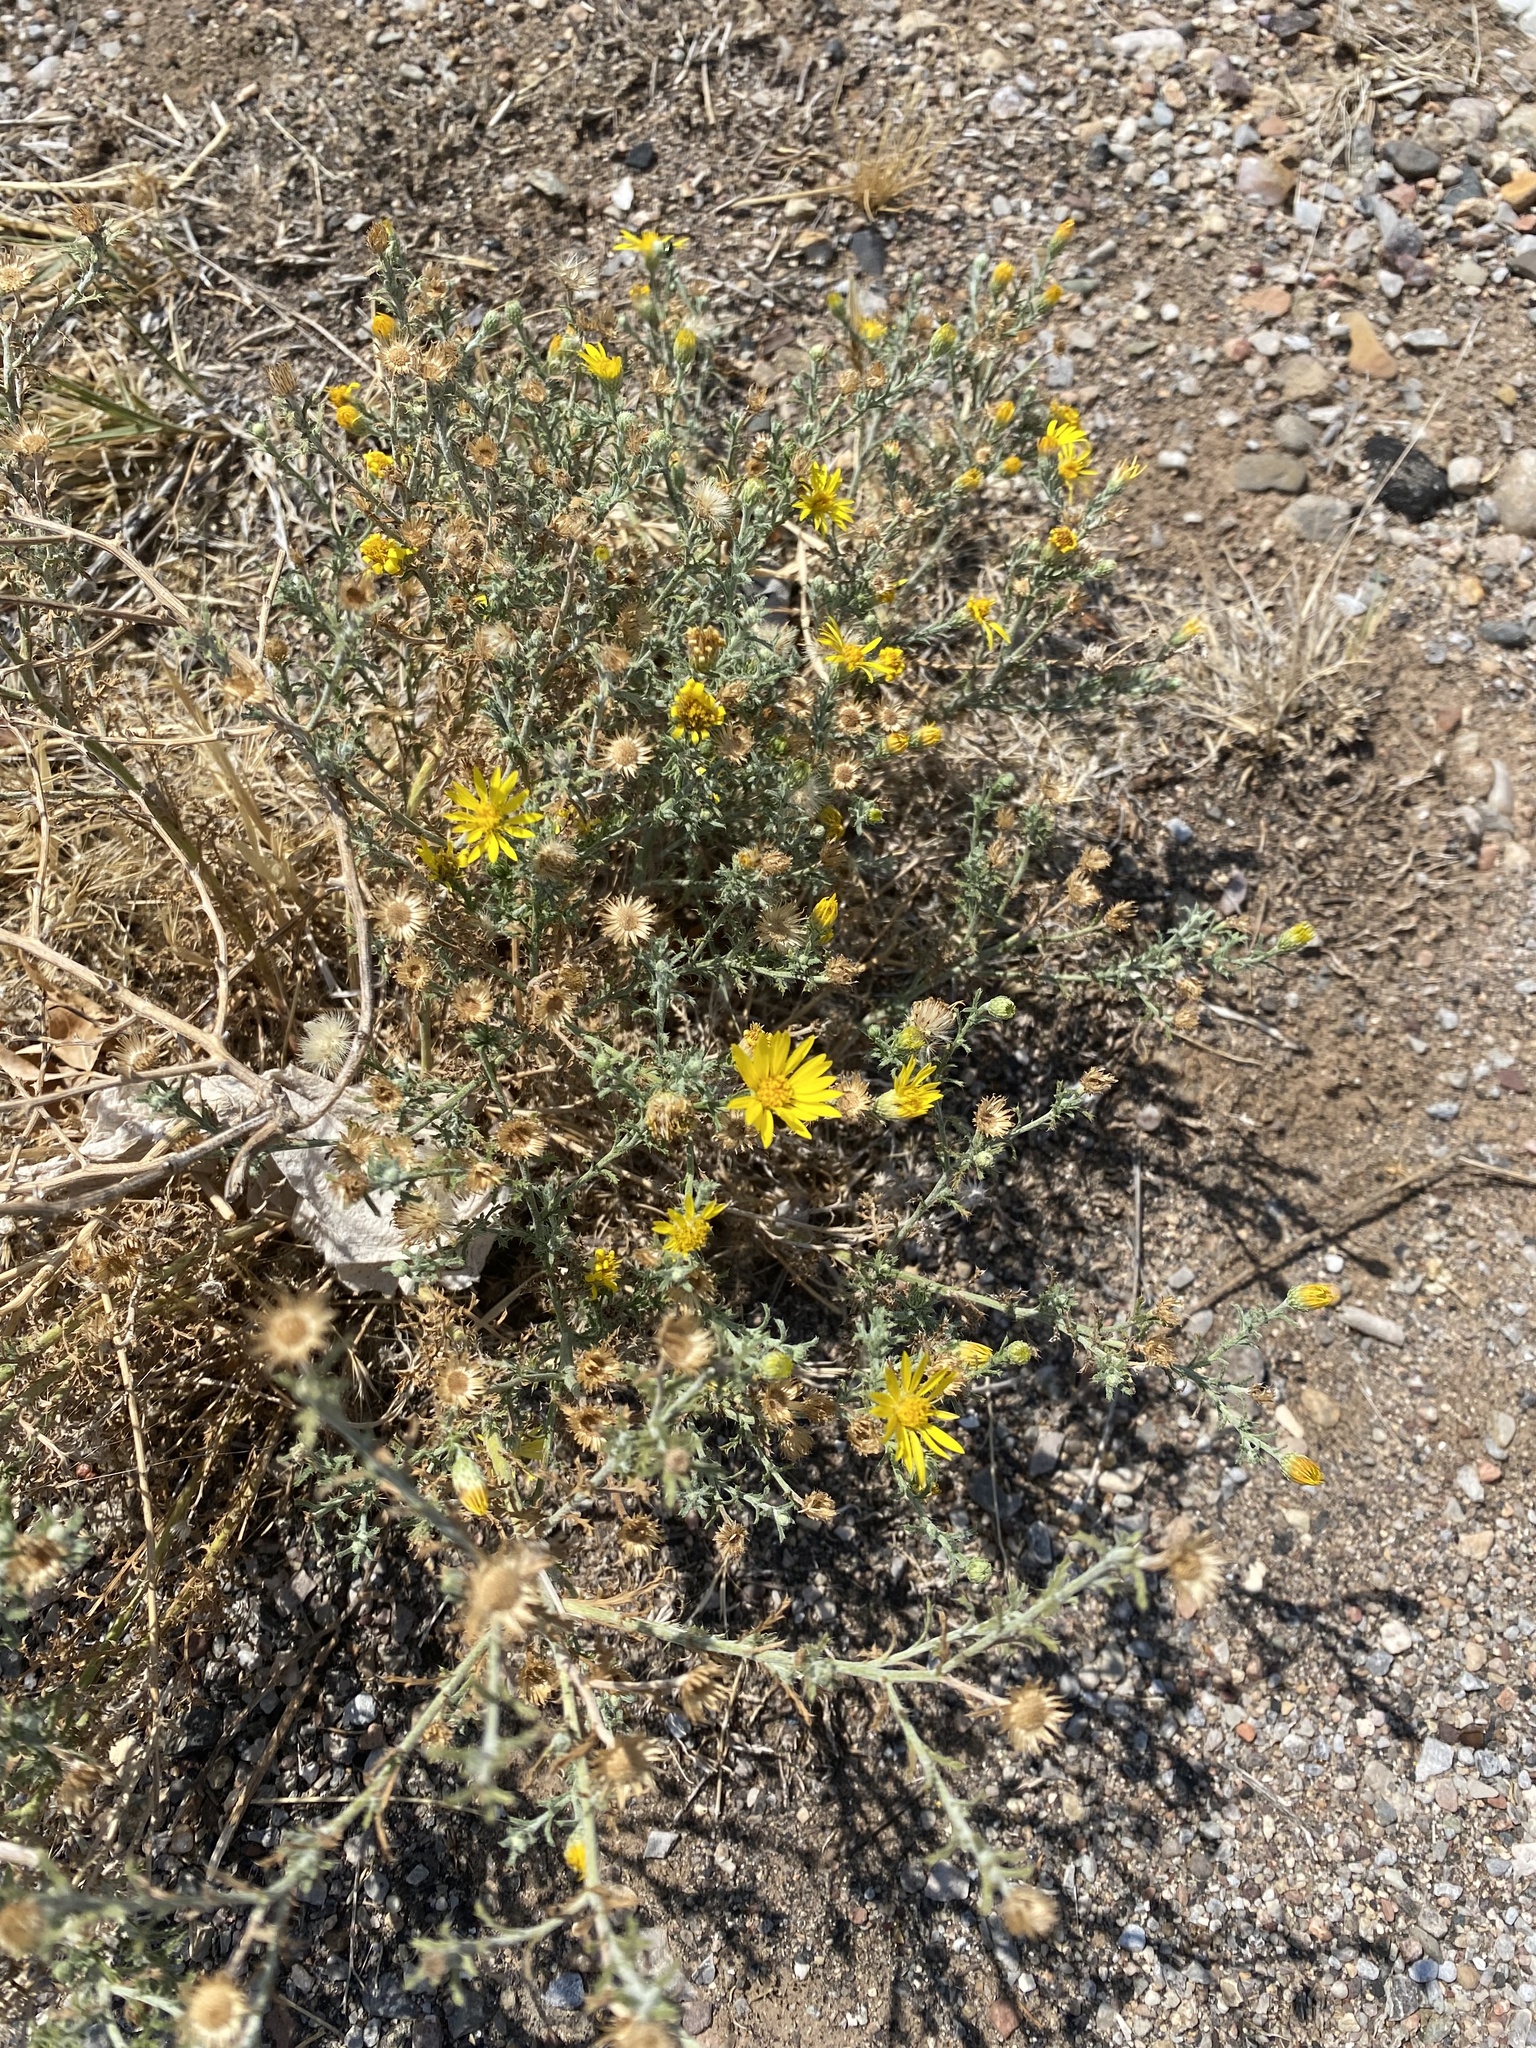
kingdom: Plantae
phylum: Tracheophyta
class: Magnoliopsida
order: Asterales
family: Asteraceae
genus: Xanthisma
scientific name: Xanthisma spinulosum
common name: Spiny goldenweed
